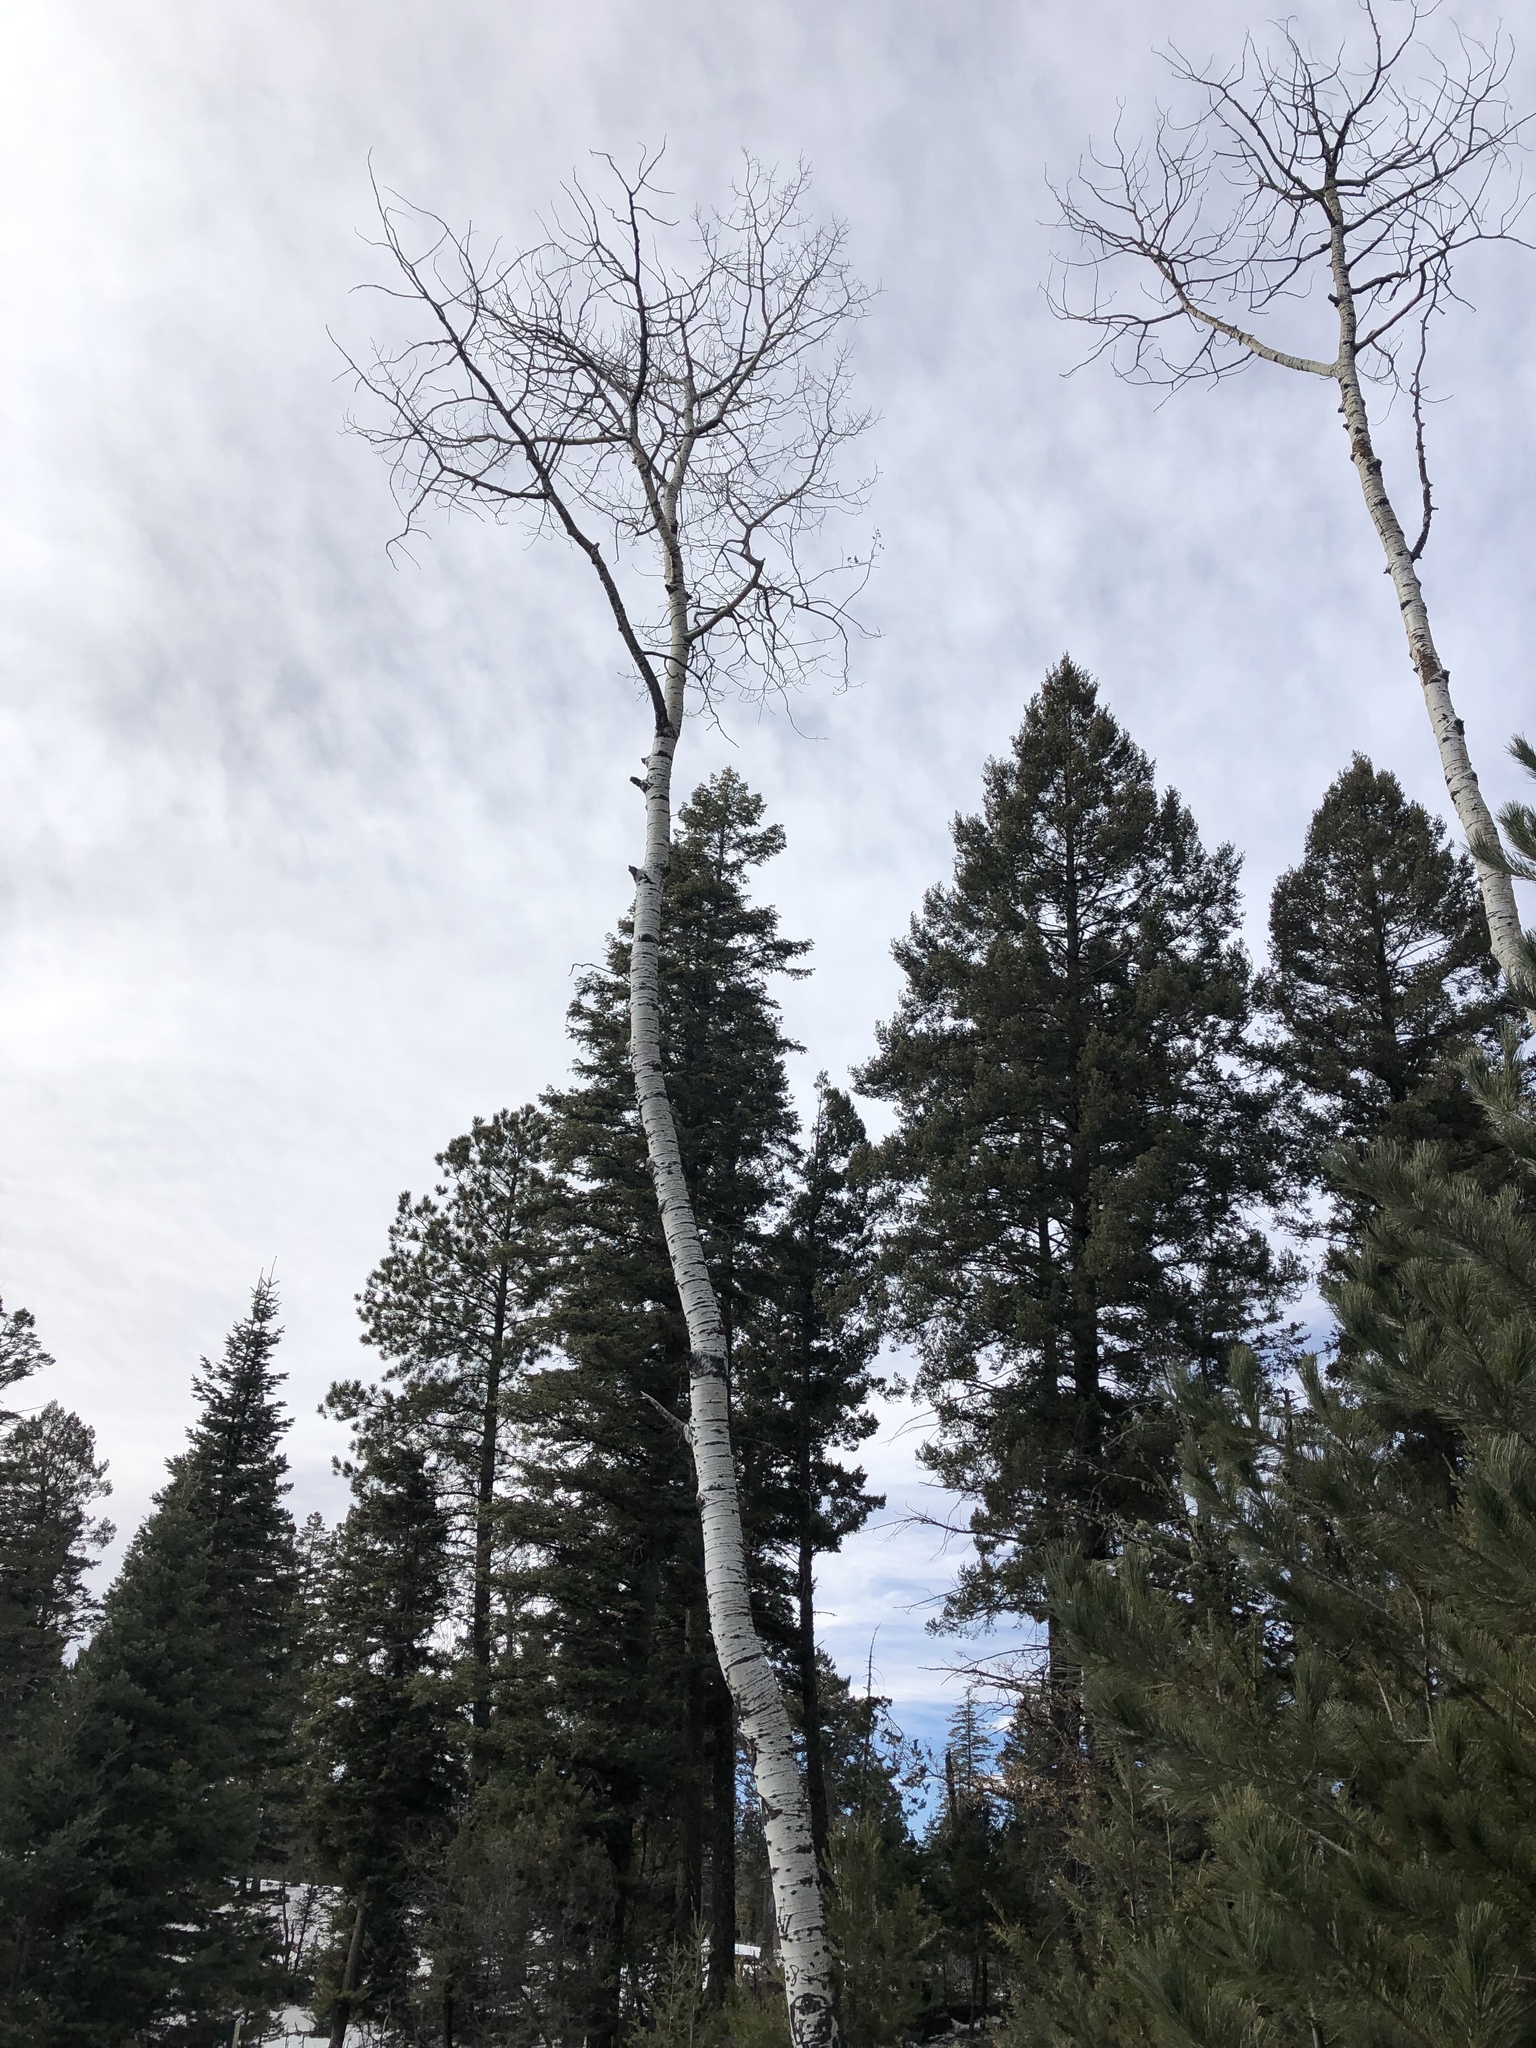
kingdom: Plantae
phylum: Tracheophyta
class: Magnoliopsida
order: Malpighiales
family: Salicaceae
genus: Populus
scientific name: Populus tremuloides
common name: Quaking aspen
